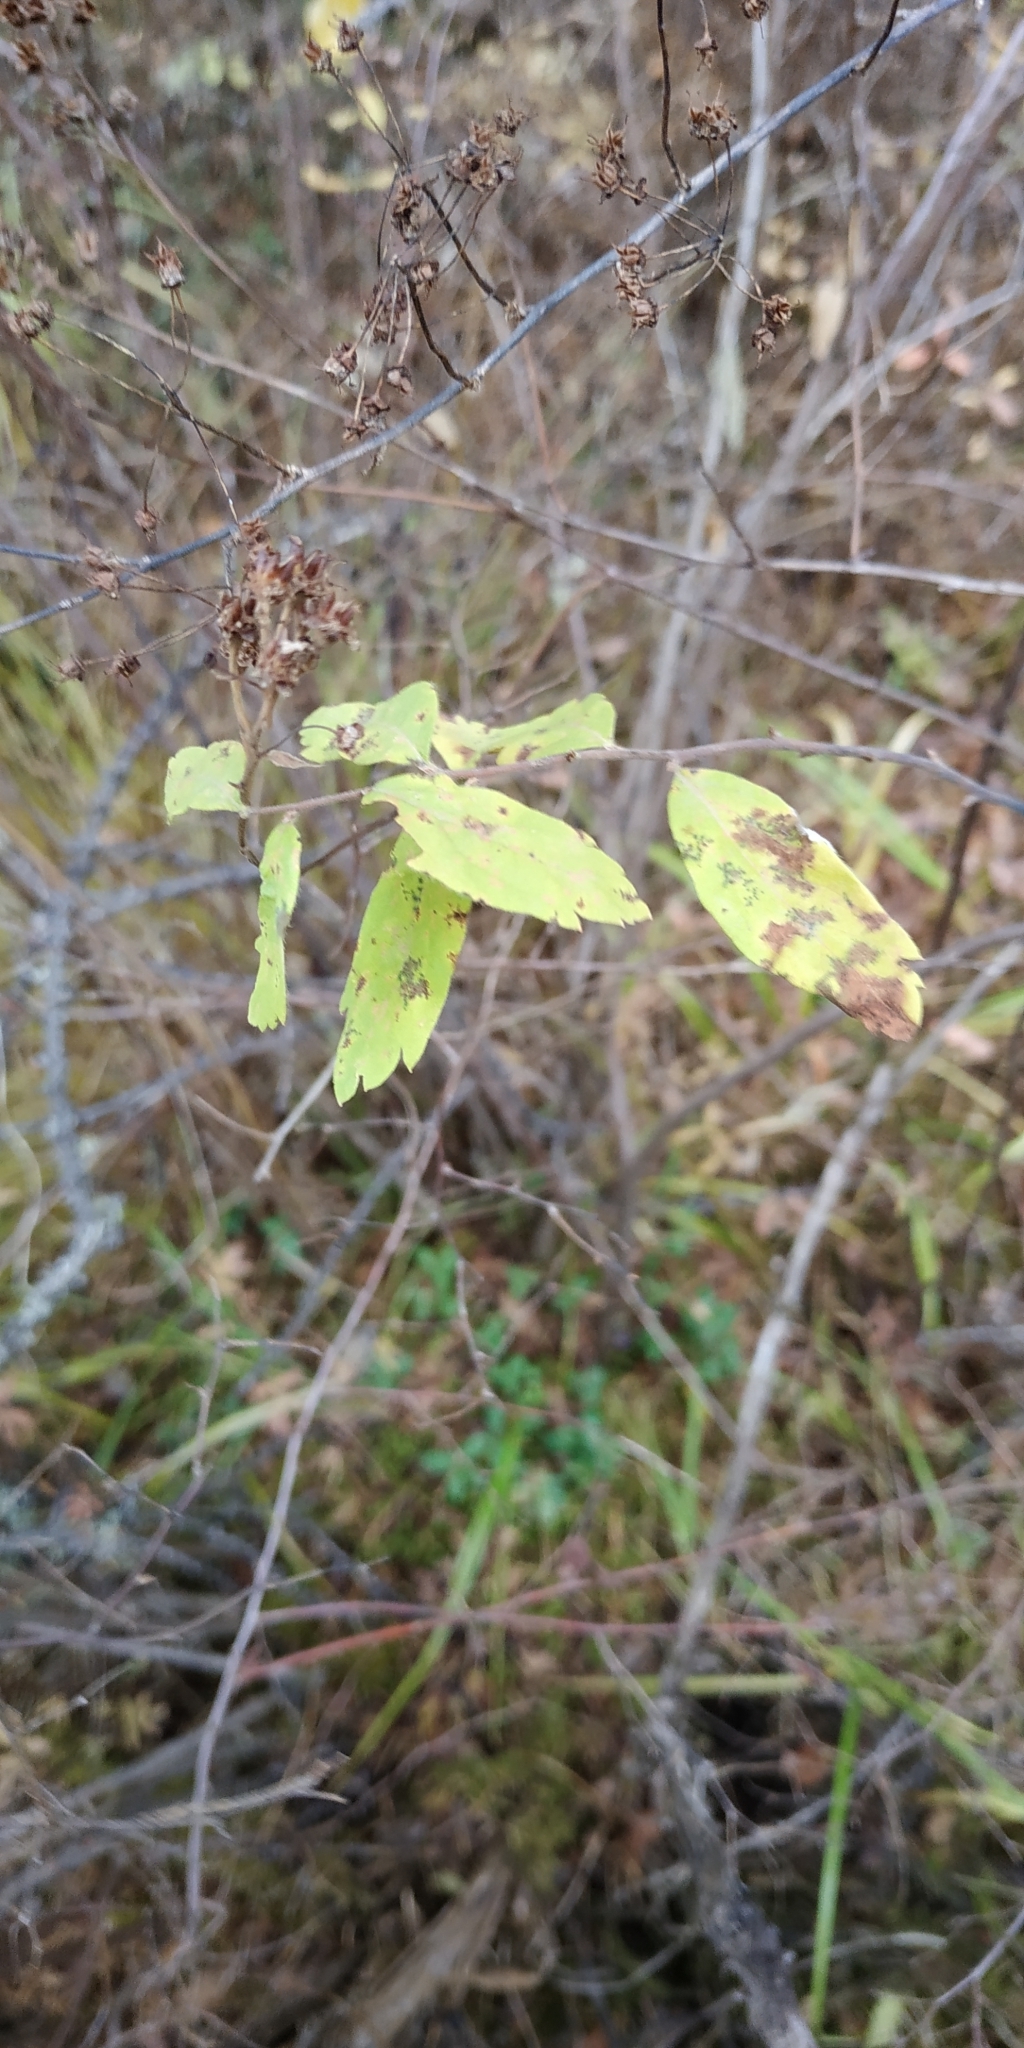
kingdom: Plantae
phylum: Tracheophyta
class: Magnoliopsida
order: Rosales
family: Rosaceae
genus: Spiraea
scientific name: Spiraea media
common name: Russian spiraea
